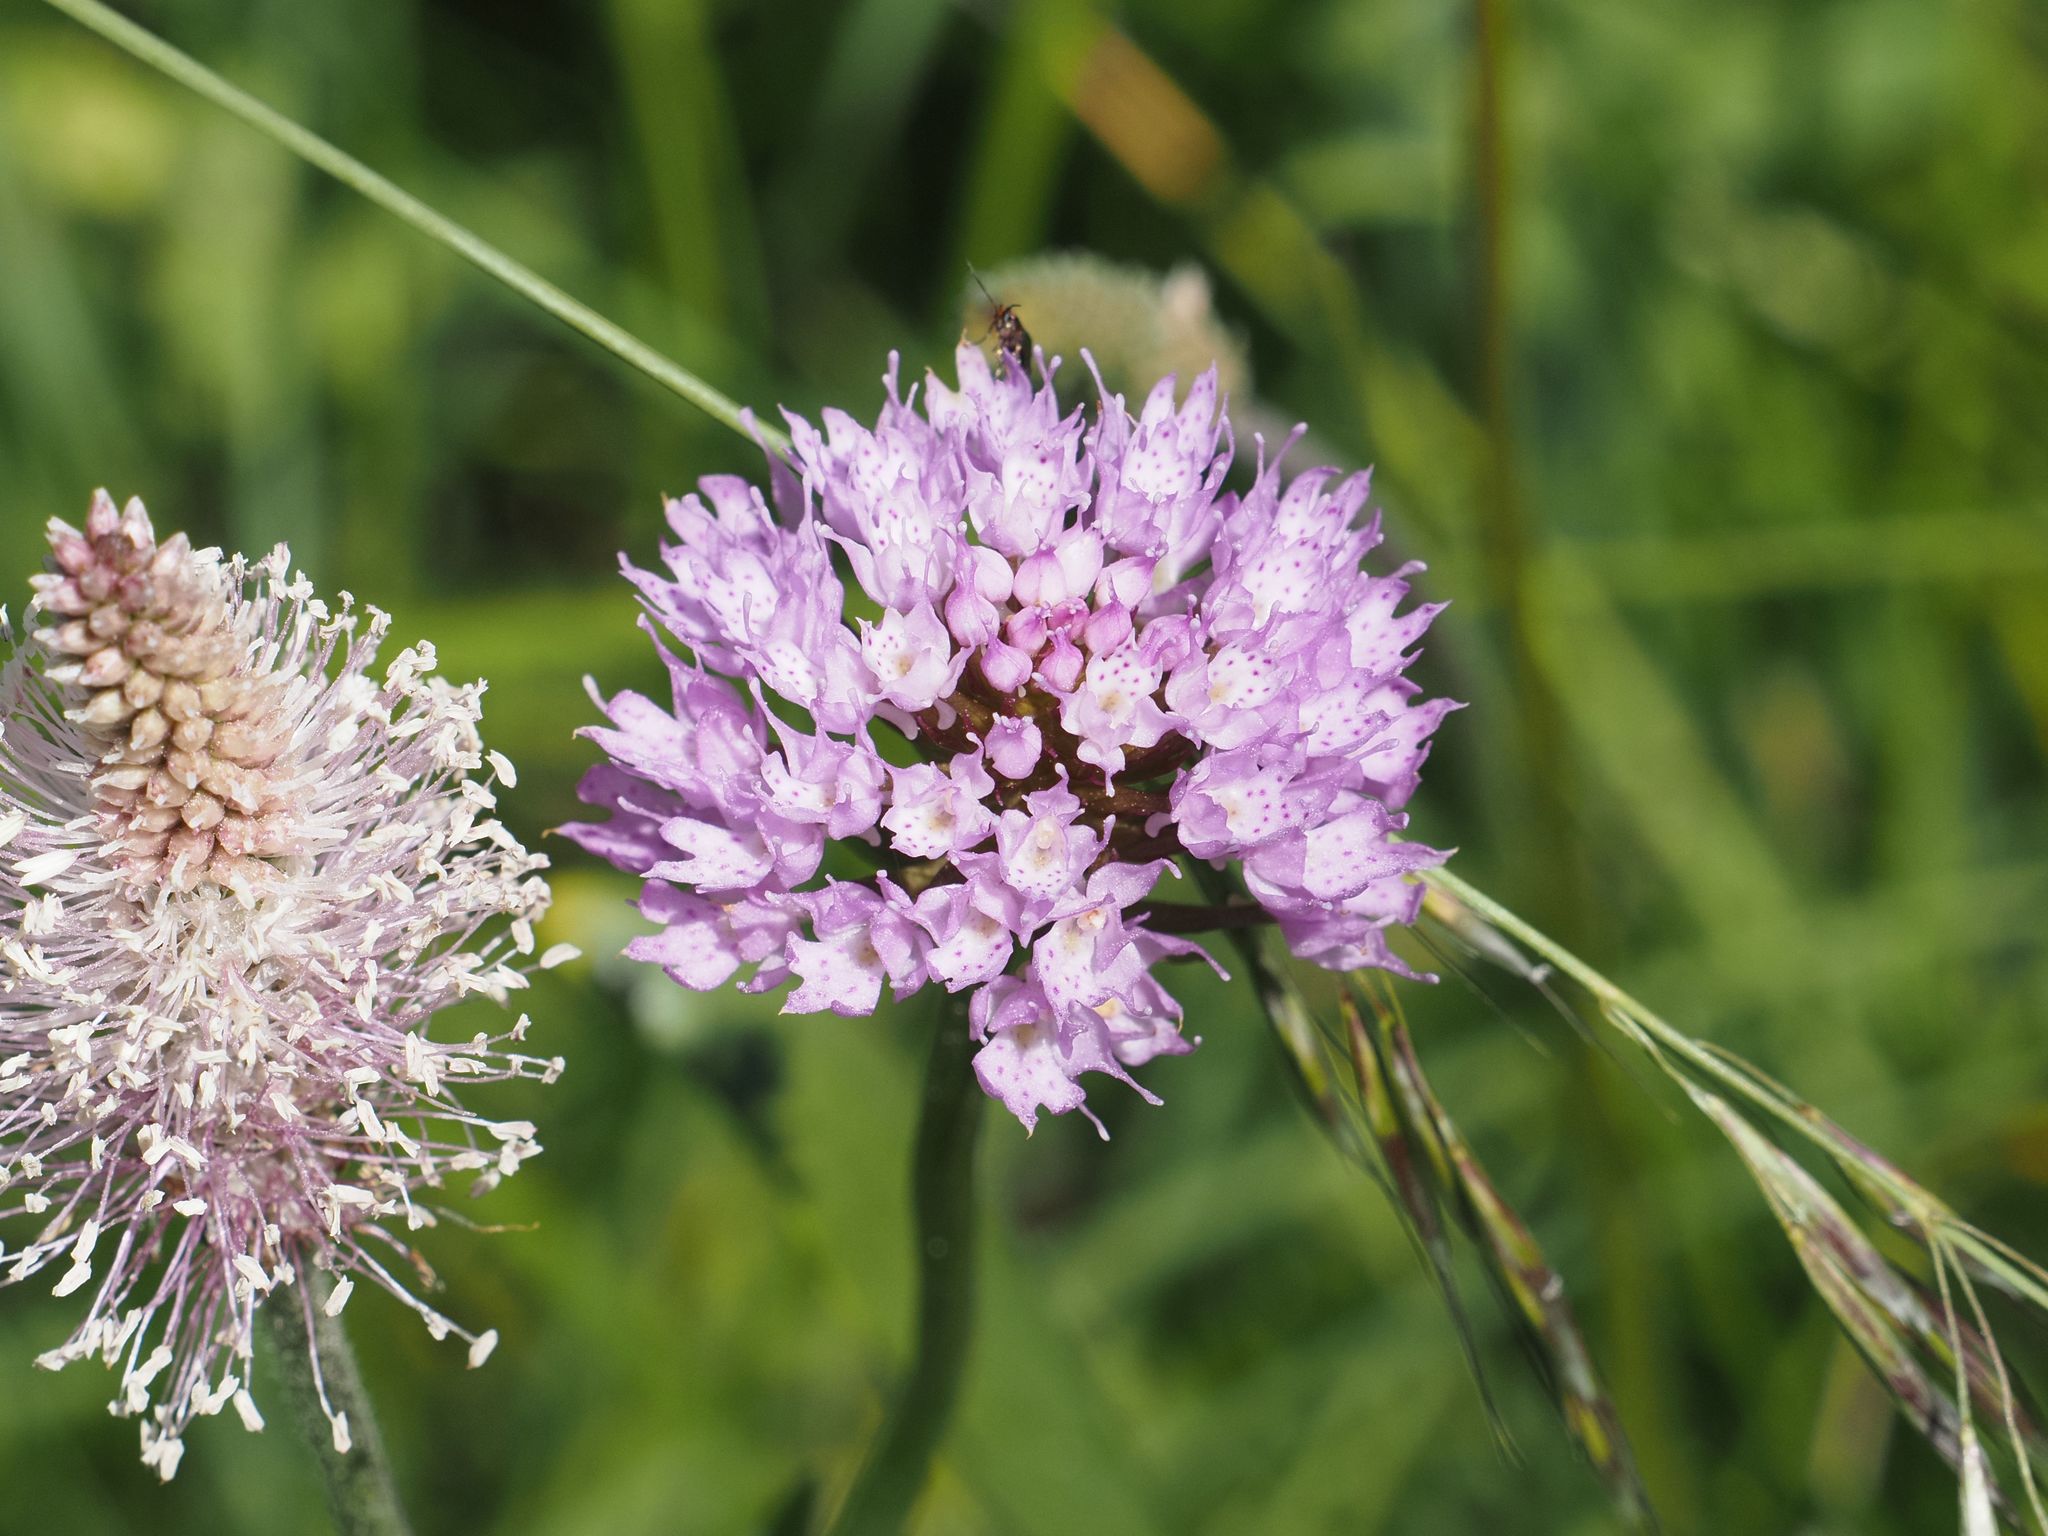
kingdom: Plantae
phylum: Tracheophyta
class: Liliopsida
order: Asparagales
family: Orchidaceae
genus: Traunsteinera
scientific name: Traunsteinera globosa
